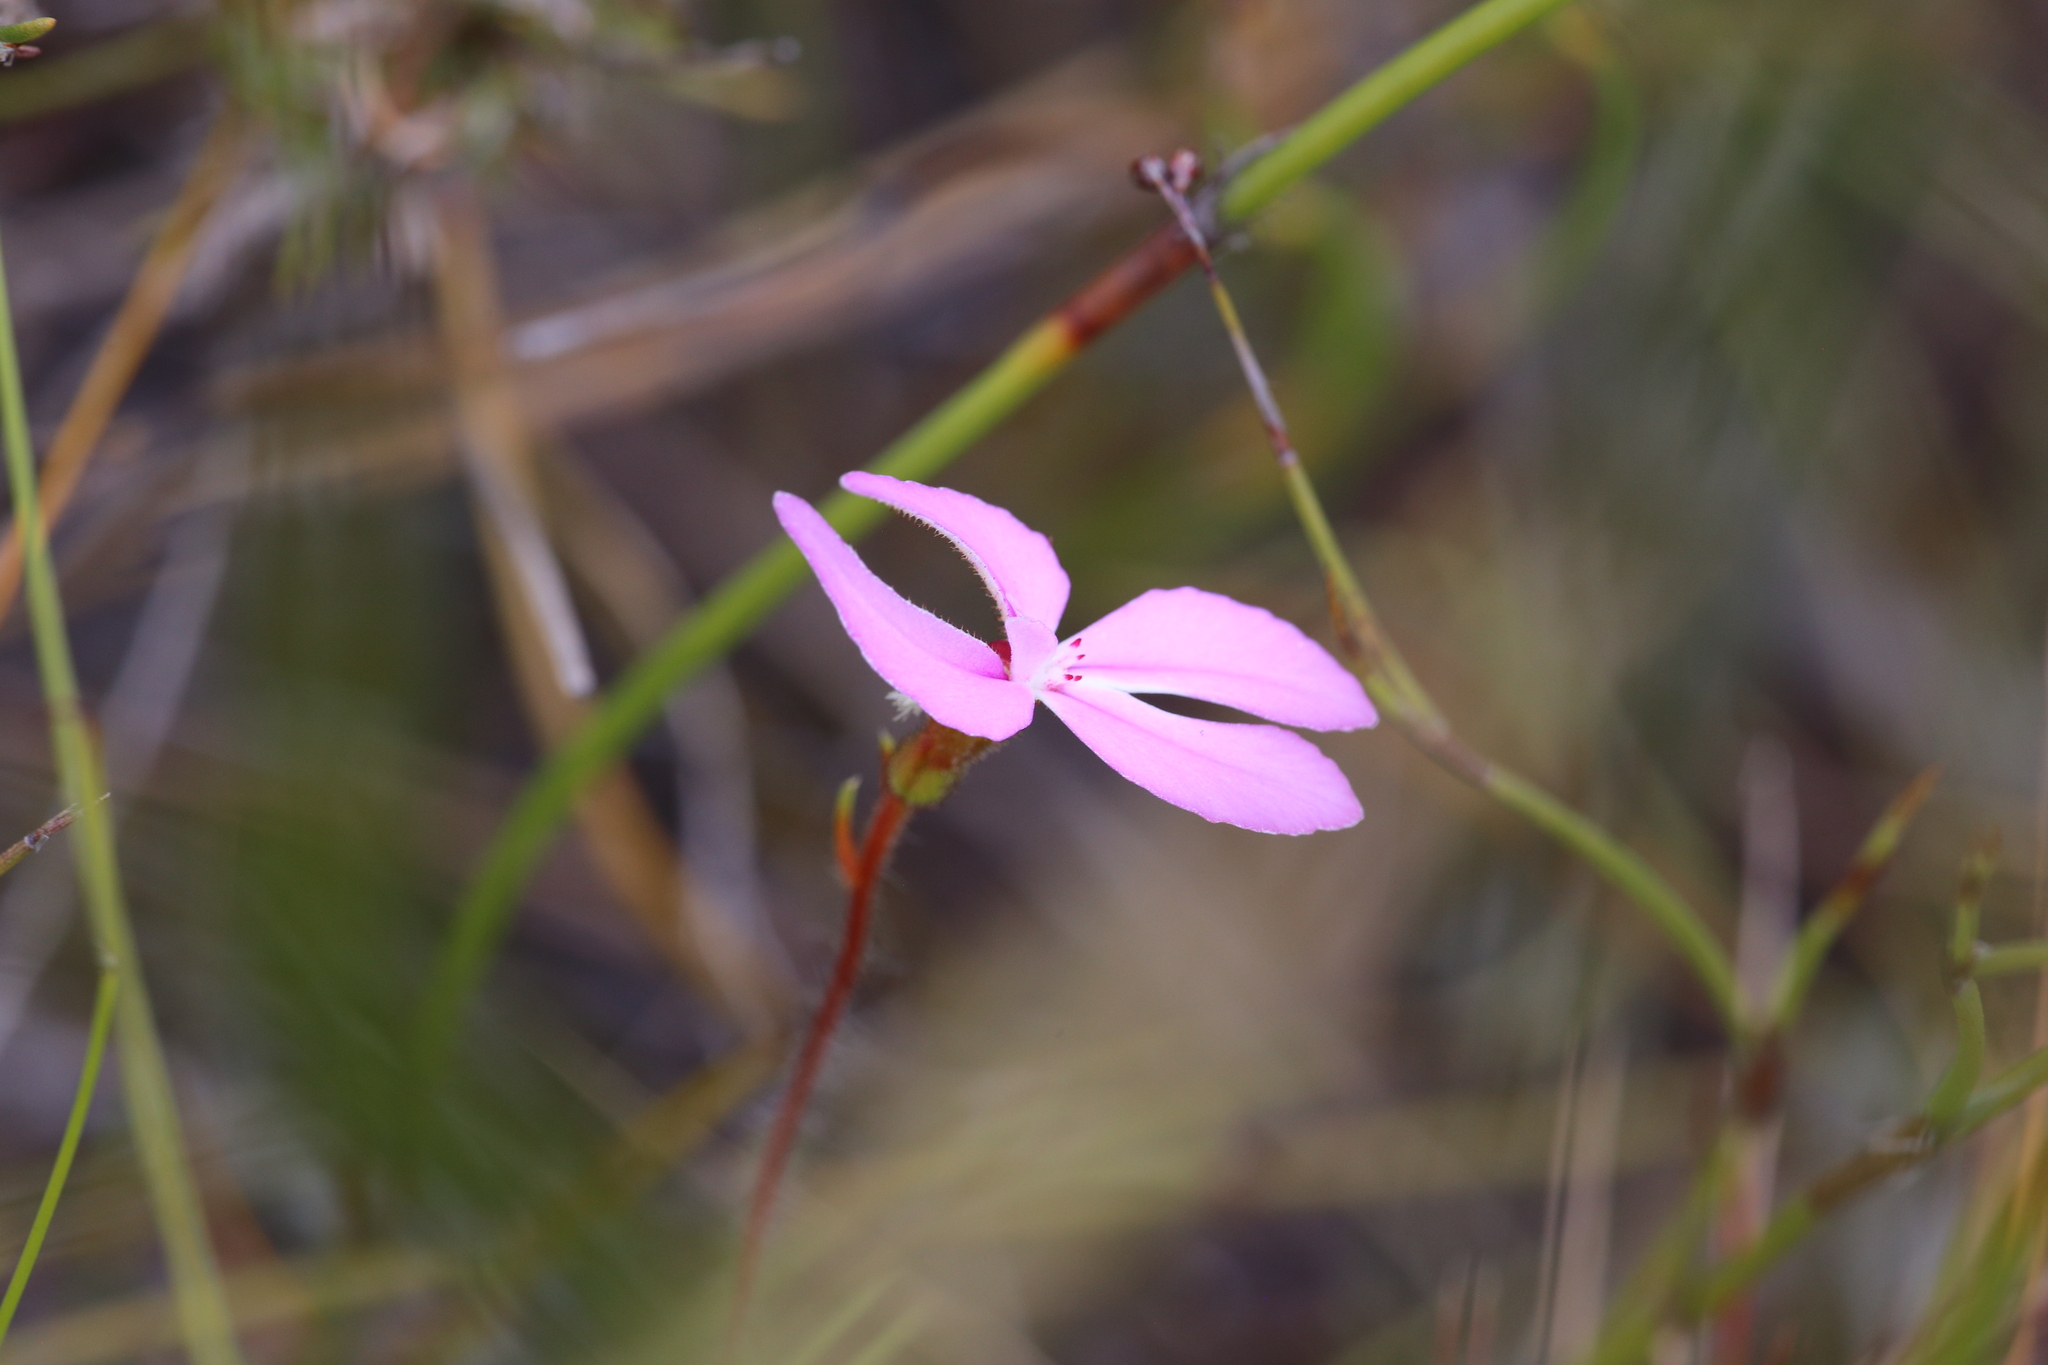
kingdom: Plantae
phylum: Tracheophyta
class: Magnoliopsida
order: Asterales
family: Stylidiaceae
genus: Stylidium
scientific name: Stylidium macranthum
